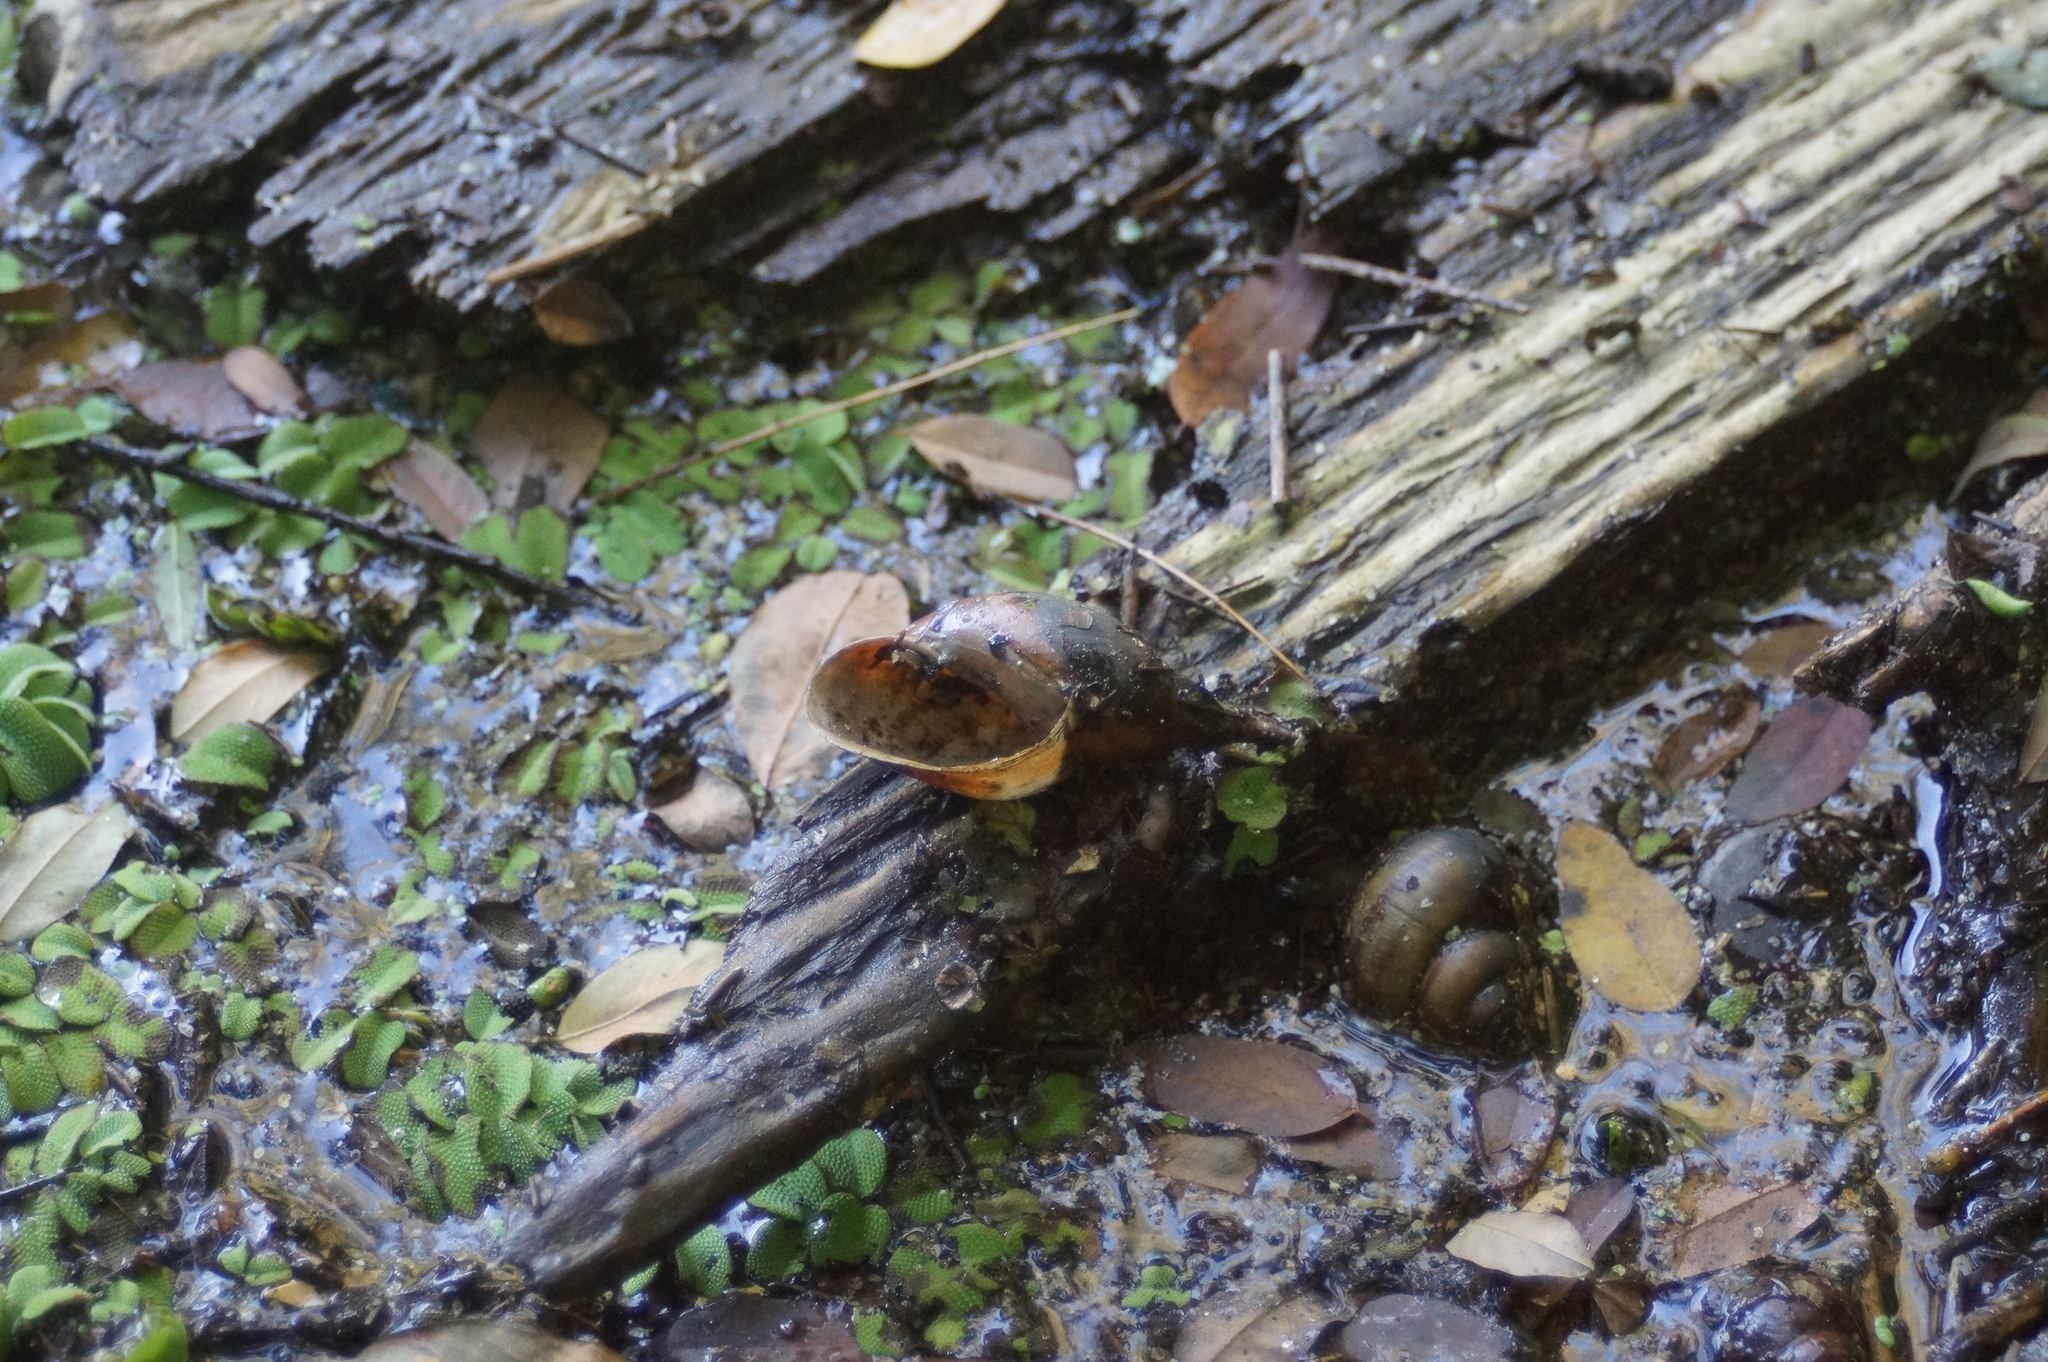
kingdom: Animalia
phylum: Mollusca
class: Gastropoda
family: Lymnaeidae
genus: Lymnaea
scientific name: Lymnaea stagnalis
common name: Great pond snail
